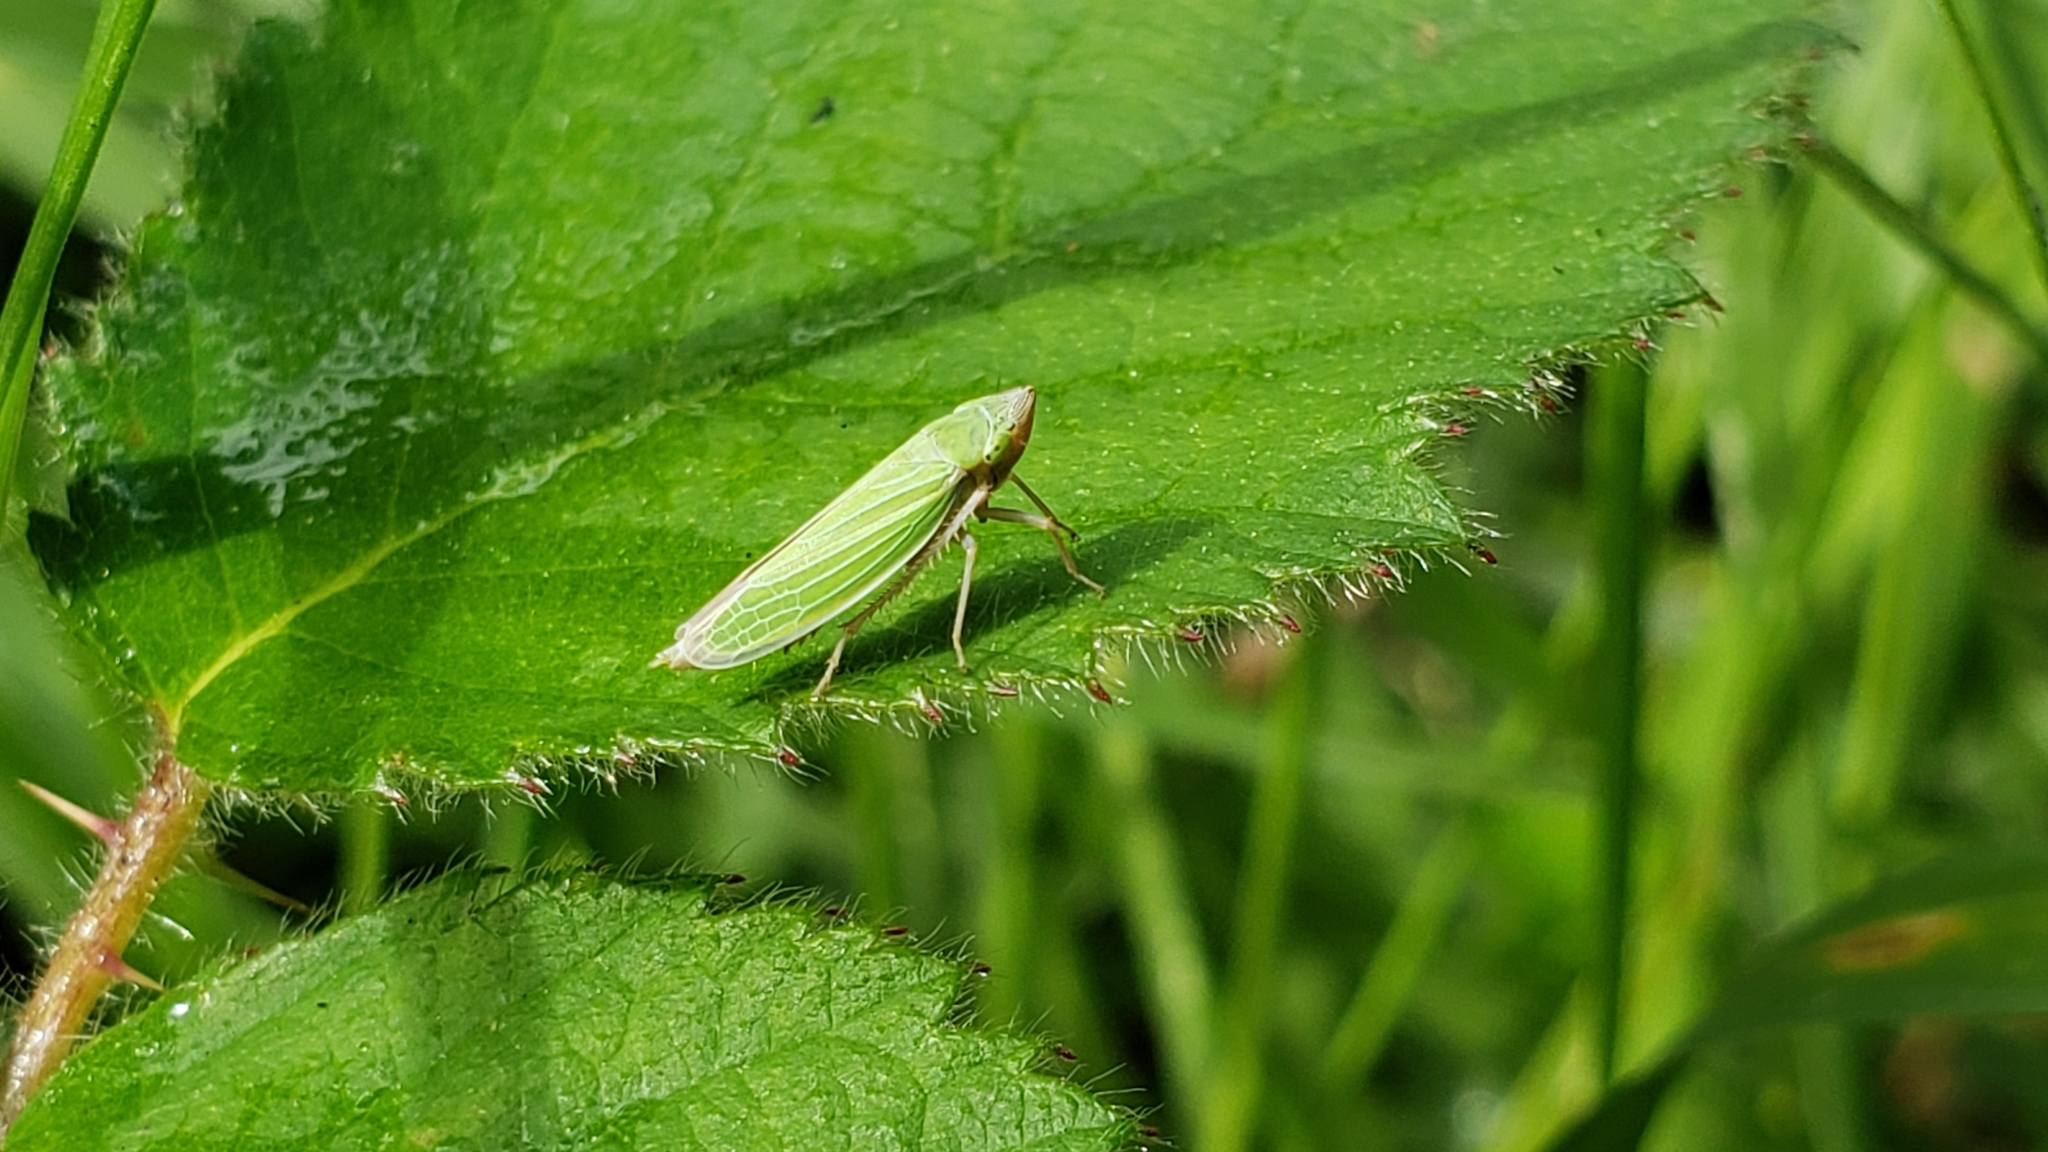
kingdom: Animalia
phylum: Arthropoda
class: Insecta
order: Hemiptera
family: Cicadellidae
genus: Draeculacephala
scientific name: Draeculacephala crassicornis
